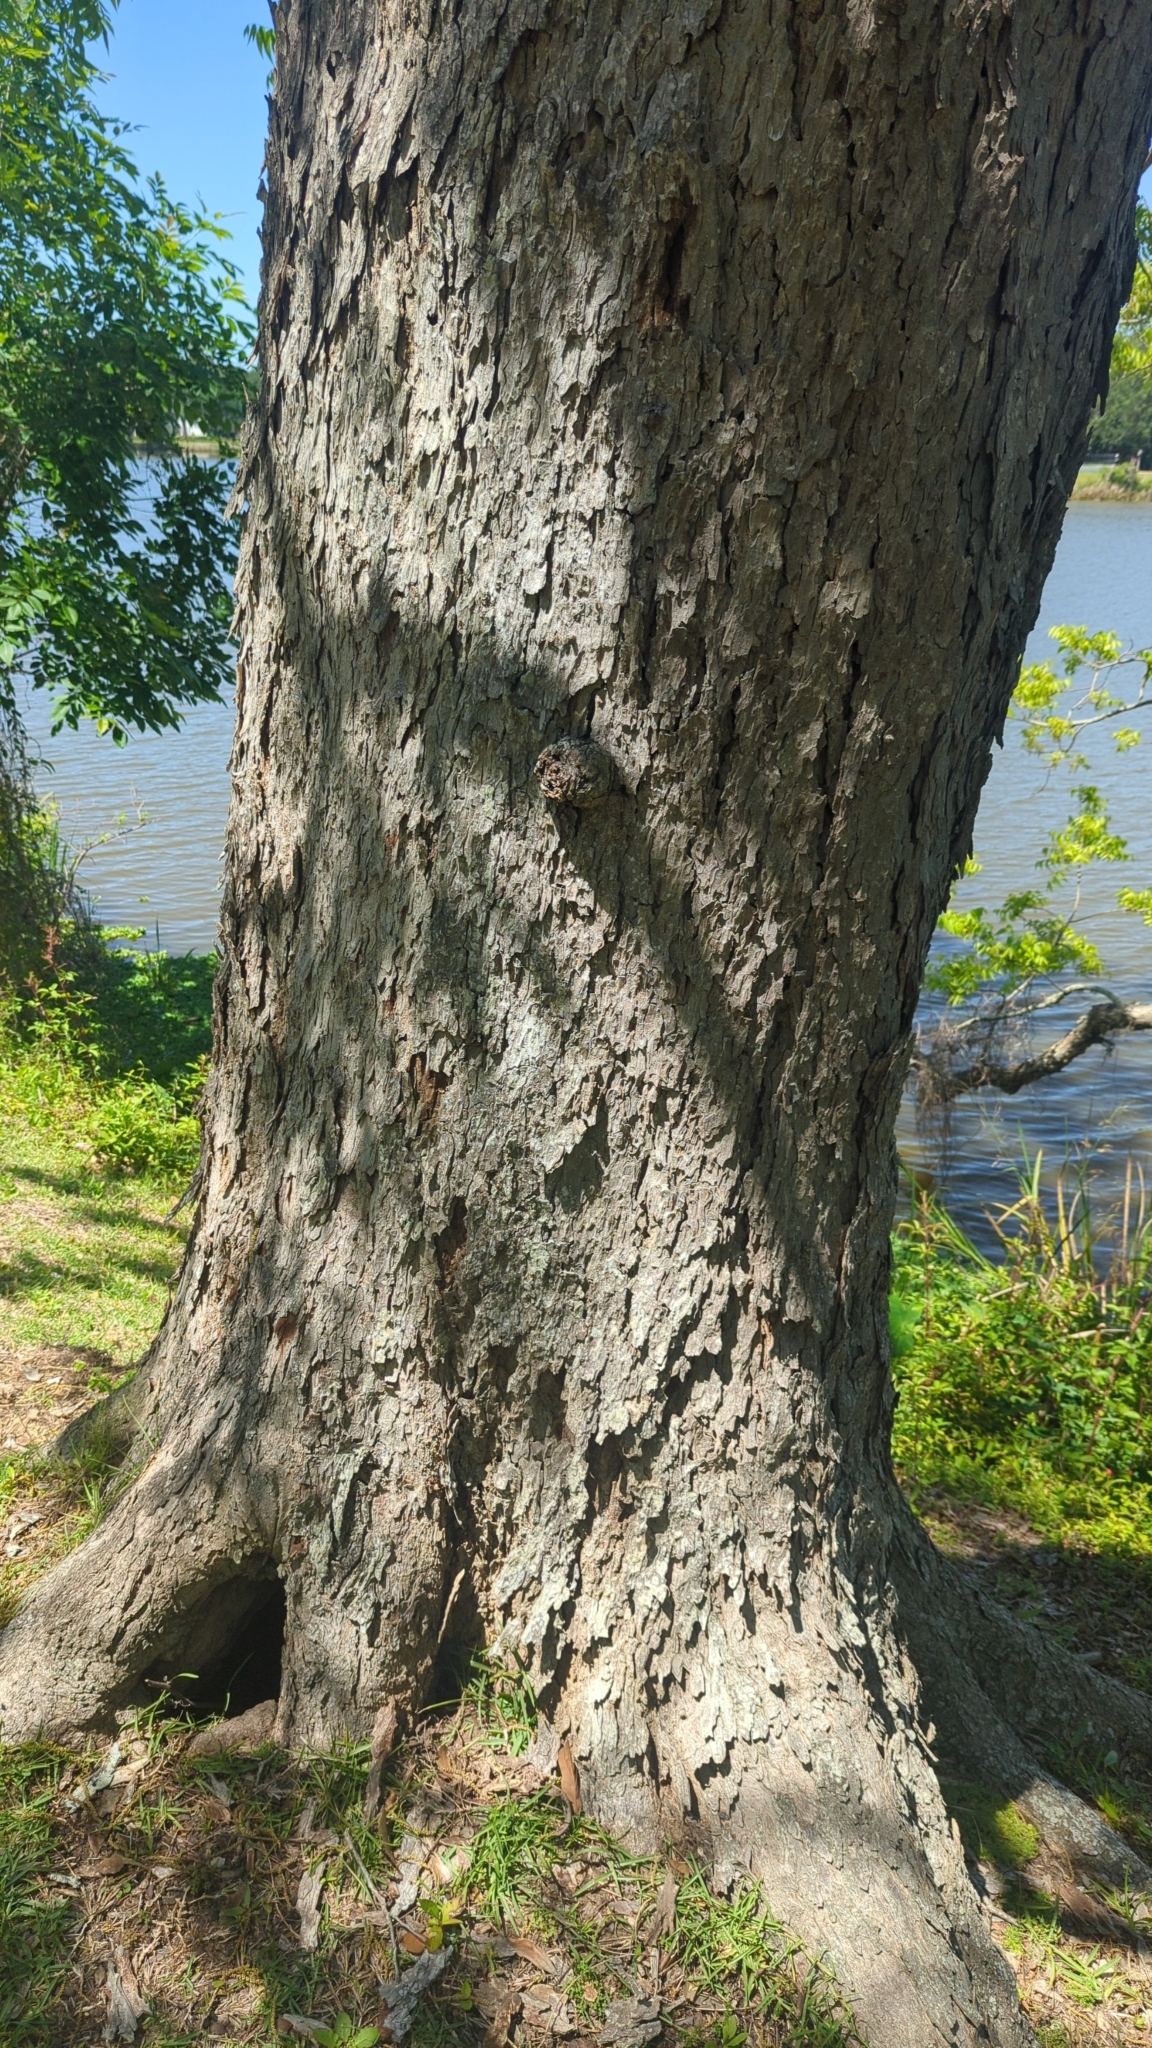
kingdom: Plantae
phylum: Tracheophyta
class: Magnoliopsida
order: Fagales
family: Juglandaceae
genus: Carya
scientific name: Carya illinoinensis
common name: Pecan
